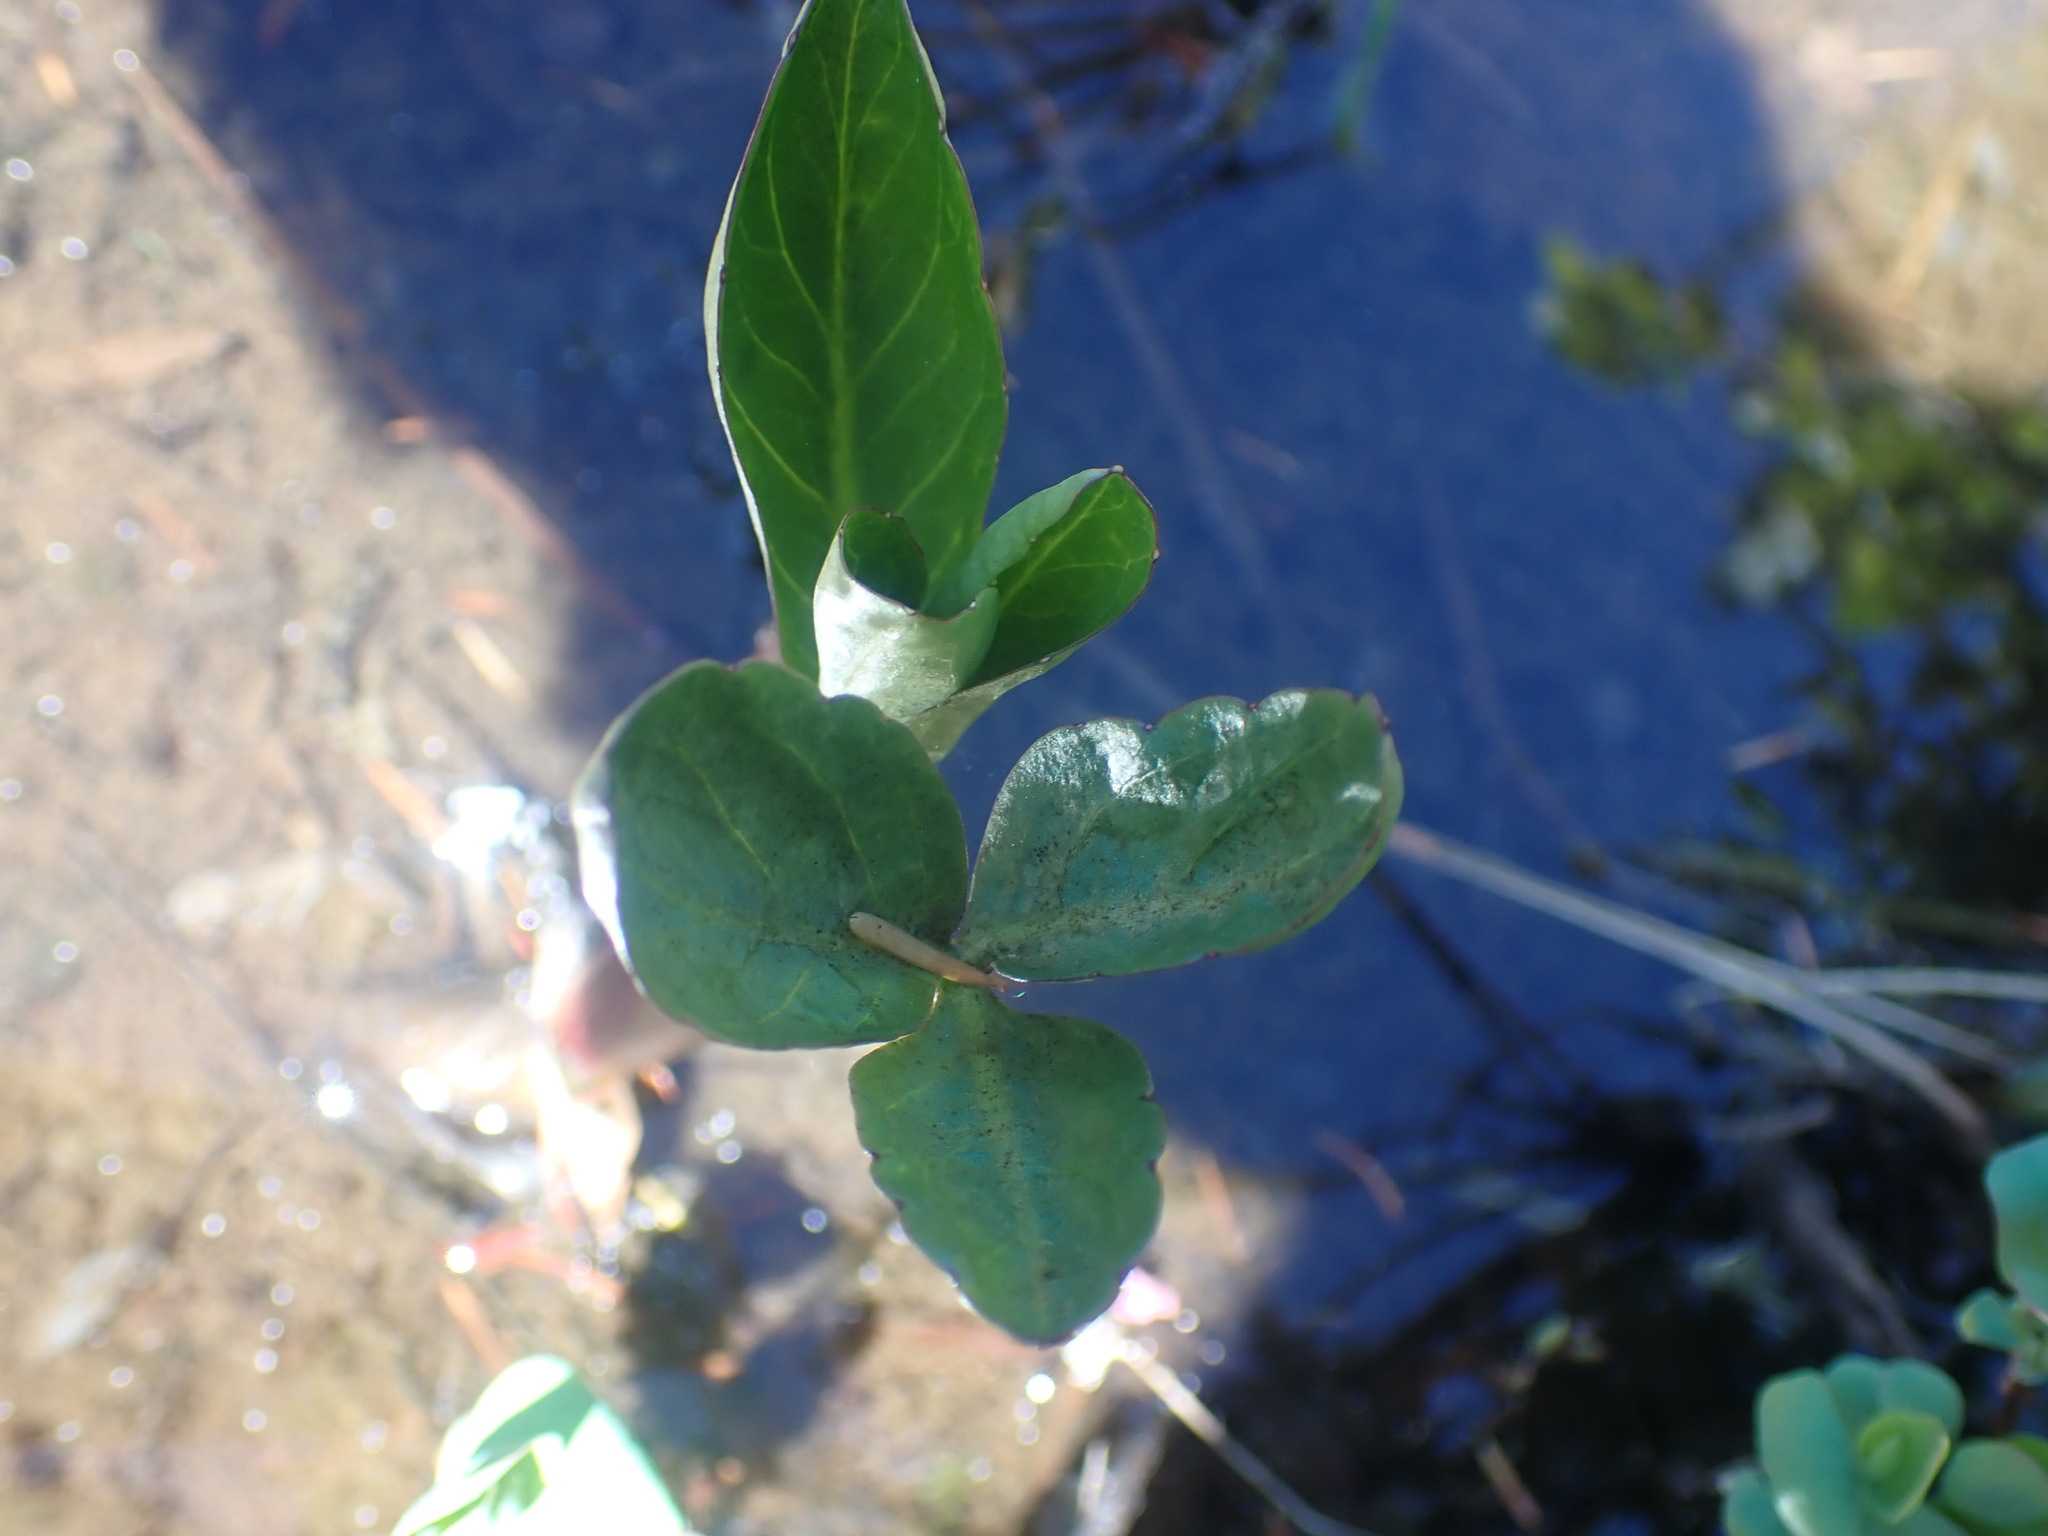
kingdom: Plantae
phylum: Tracheophyta
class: Magnoliopsida
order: Asterales
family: Menyanthaceae
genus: Menyanthes
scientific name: Menyanthes trifoliata
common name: Bogbean
